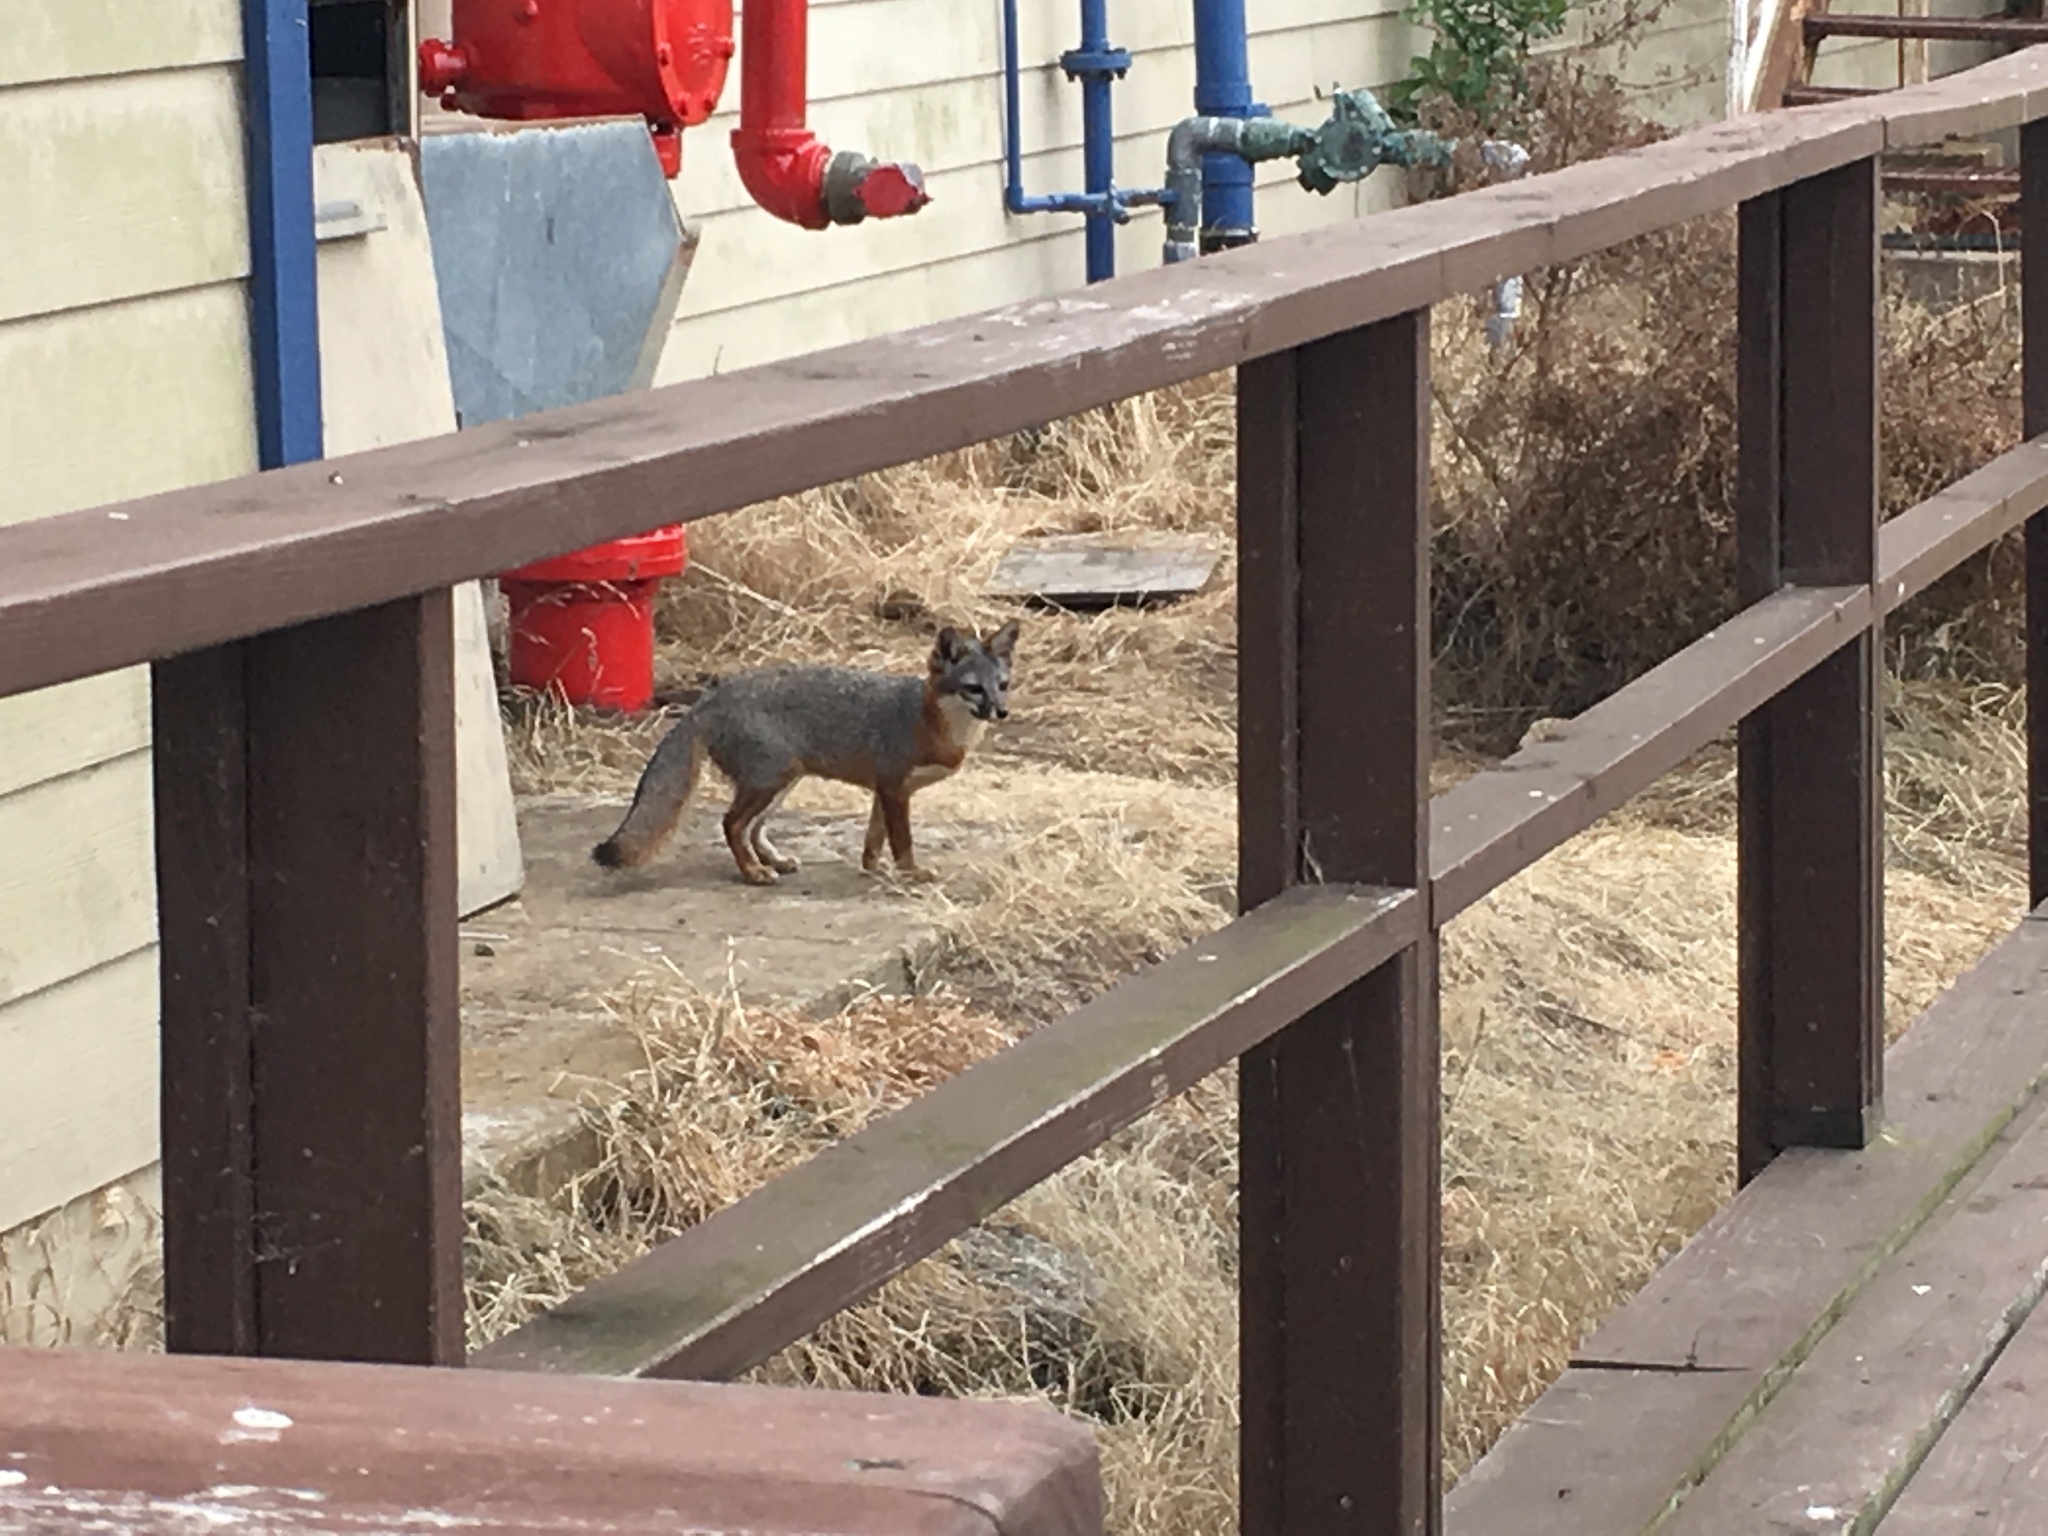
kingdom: Animalia
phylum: Chordata
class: Mammalia
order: Carnivora
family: Canidae
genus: Urocyon
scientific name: Urocyon littoralis
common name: Island gray fox
